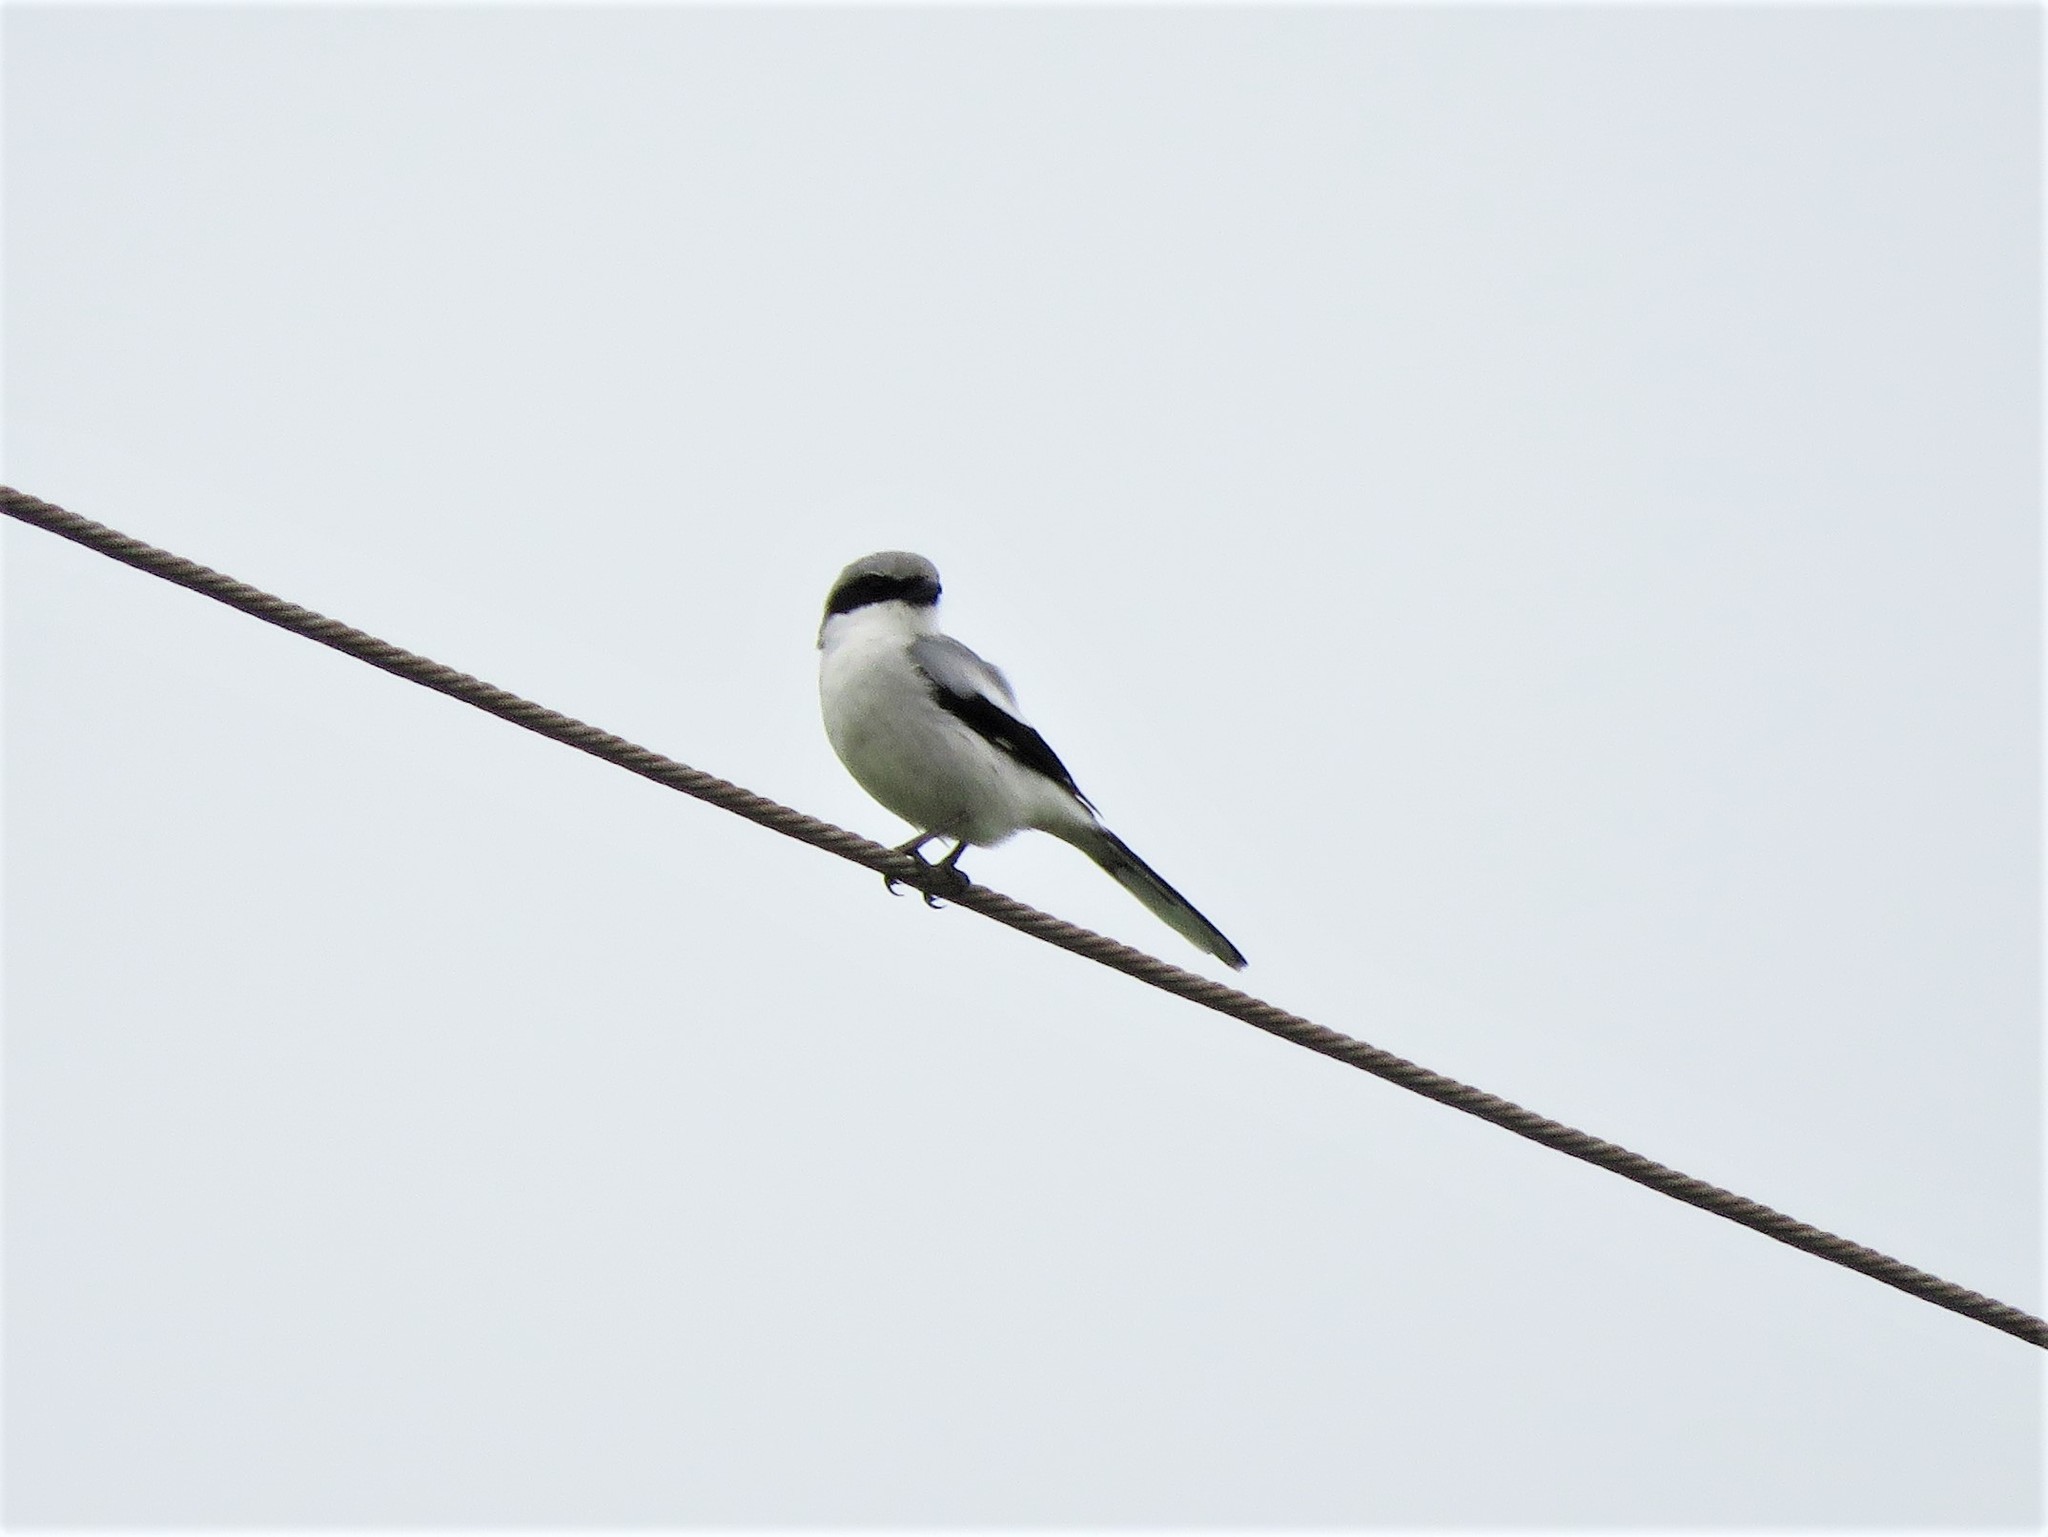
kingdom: Animalia
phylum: Chordata
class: Aves
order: Passeriformes
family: Laniidae
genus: Lanius
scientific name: Lanius ludovicianus
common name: Loggerhead shrike
